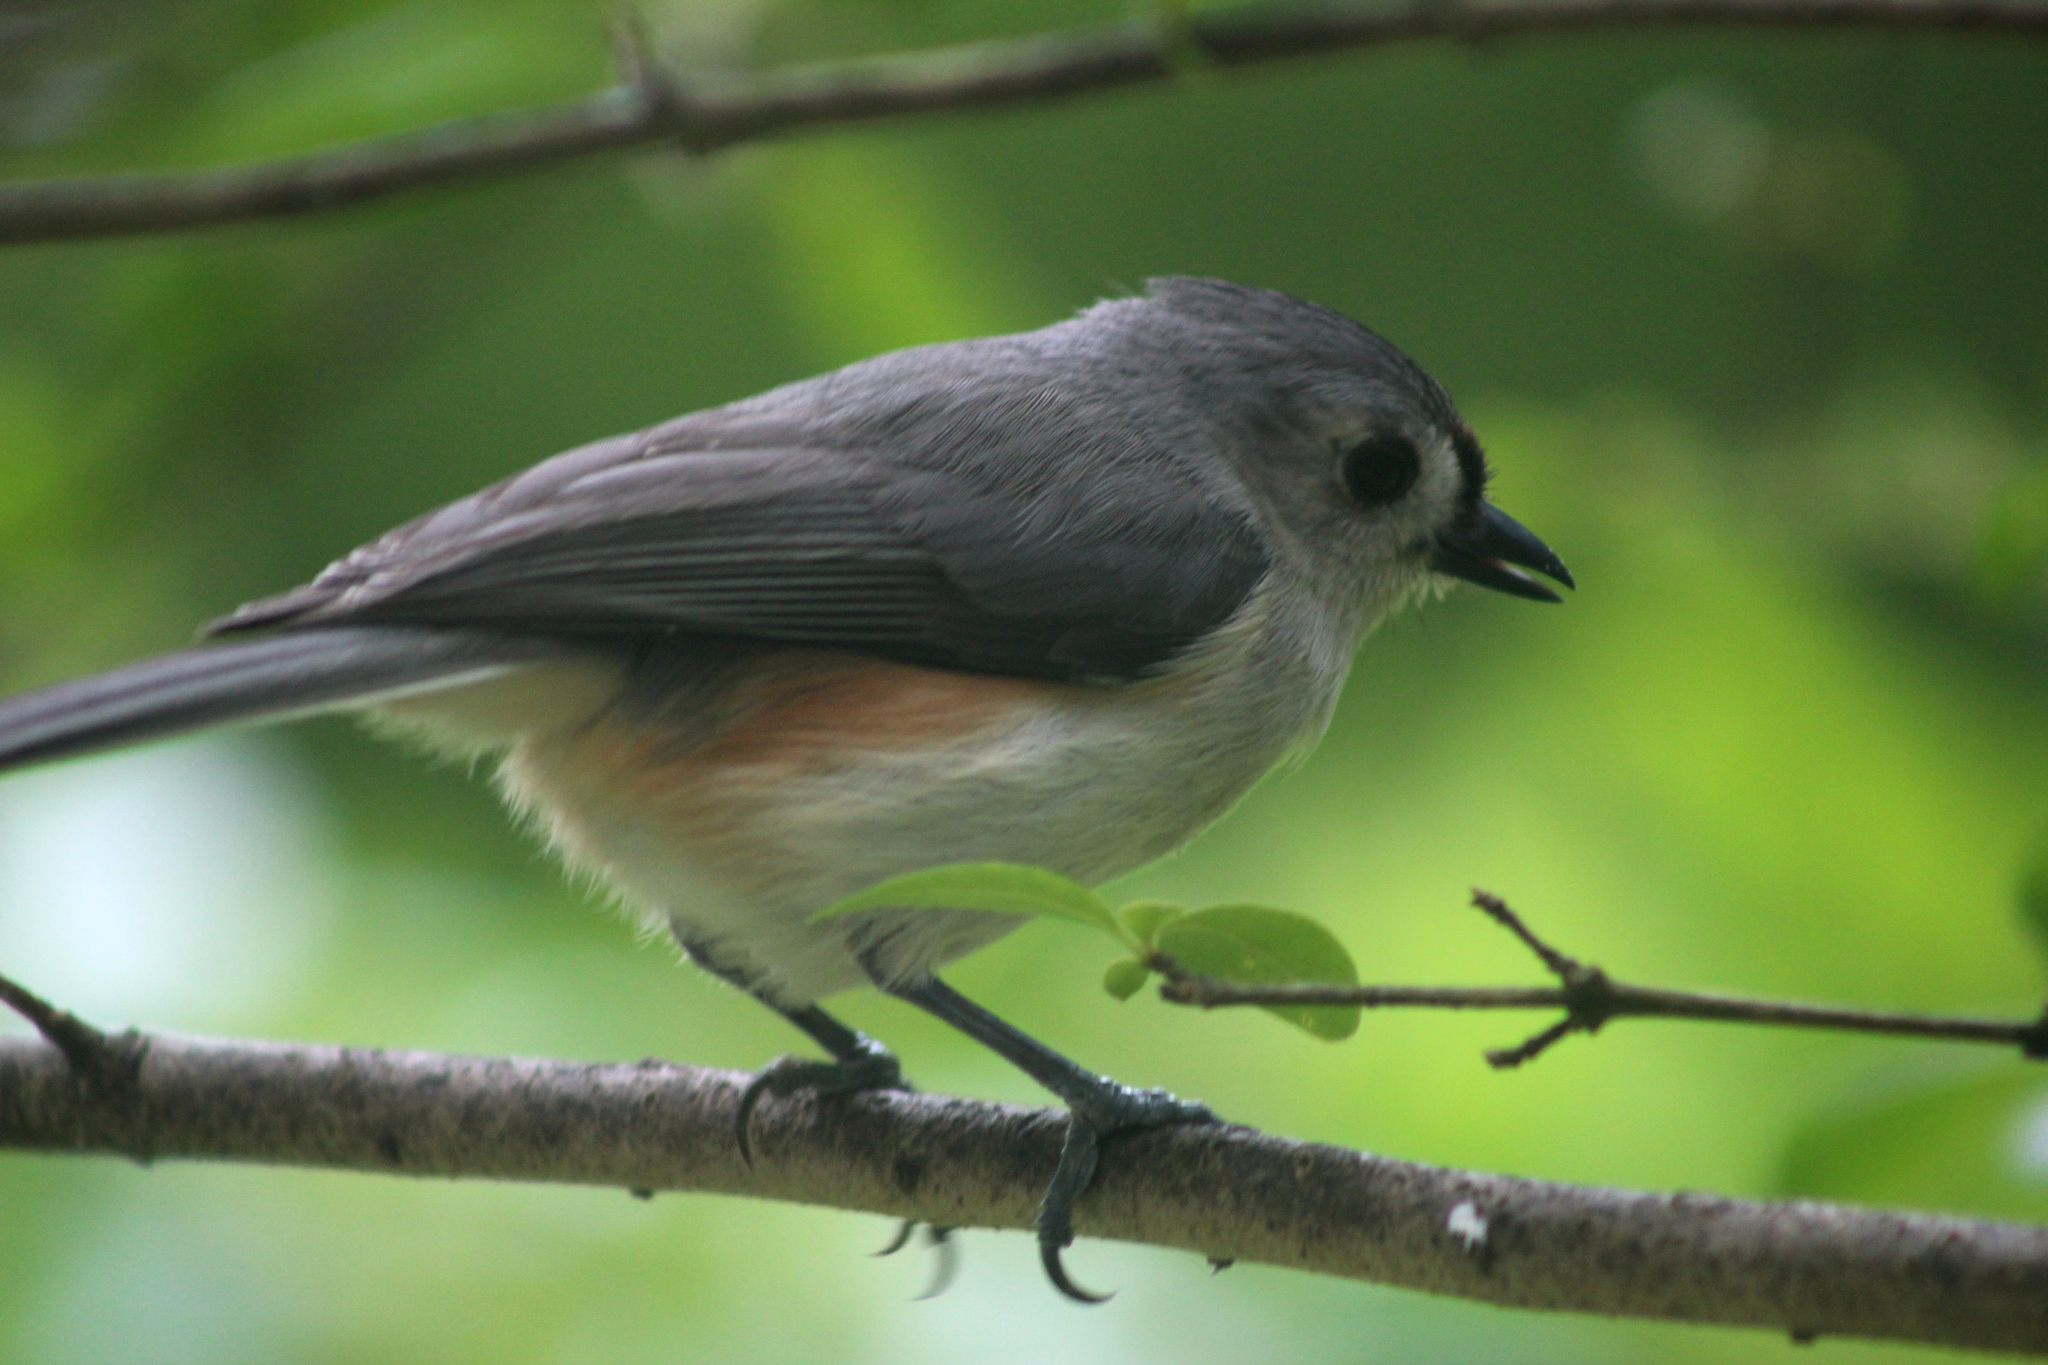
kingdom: Animalia
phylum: Chordata
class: Aves
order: Passeriformes
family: Paridae
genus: Baeolophus
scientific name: Baeolophus bicolor
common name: Tufted titmouse
